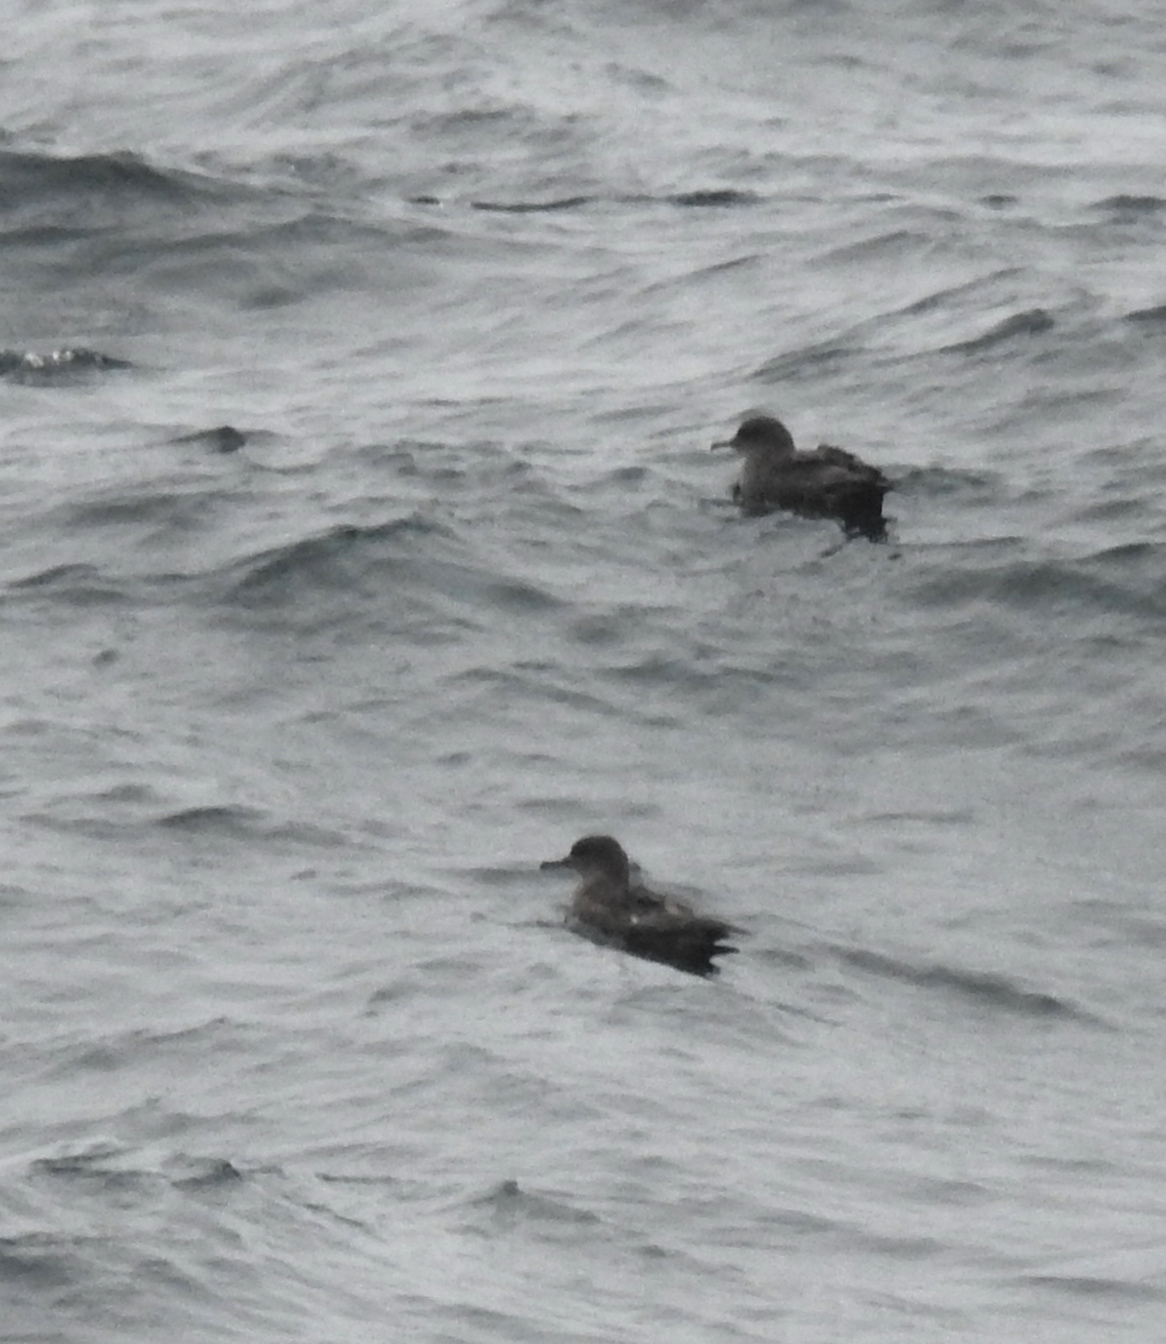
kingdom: Animalia
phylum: Chordata
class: Aves
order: Procellariiformes
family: Procellariidae
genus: Puffinus
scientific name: Puffinus griseus
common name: Sooty shearwater
